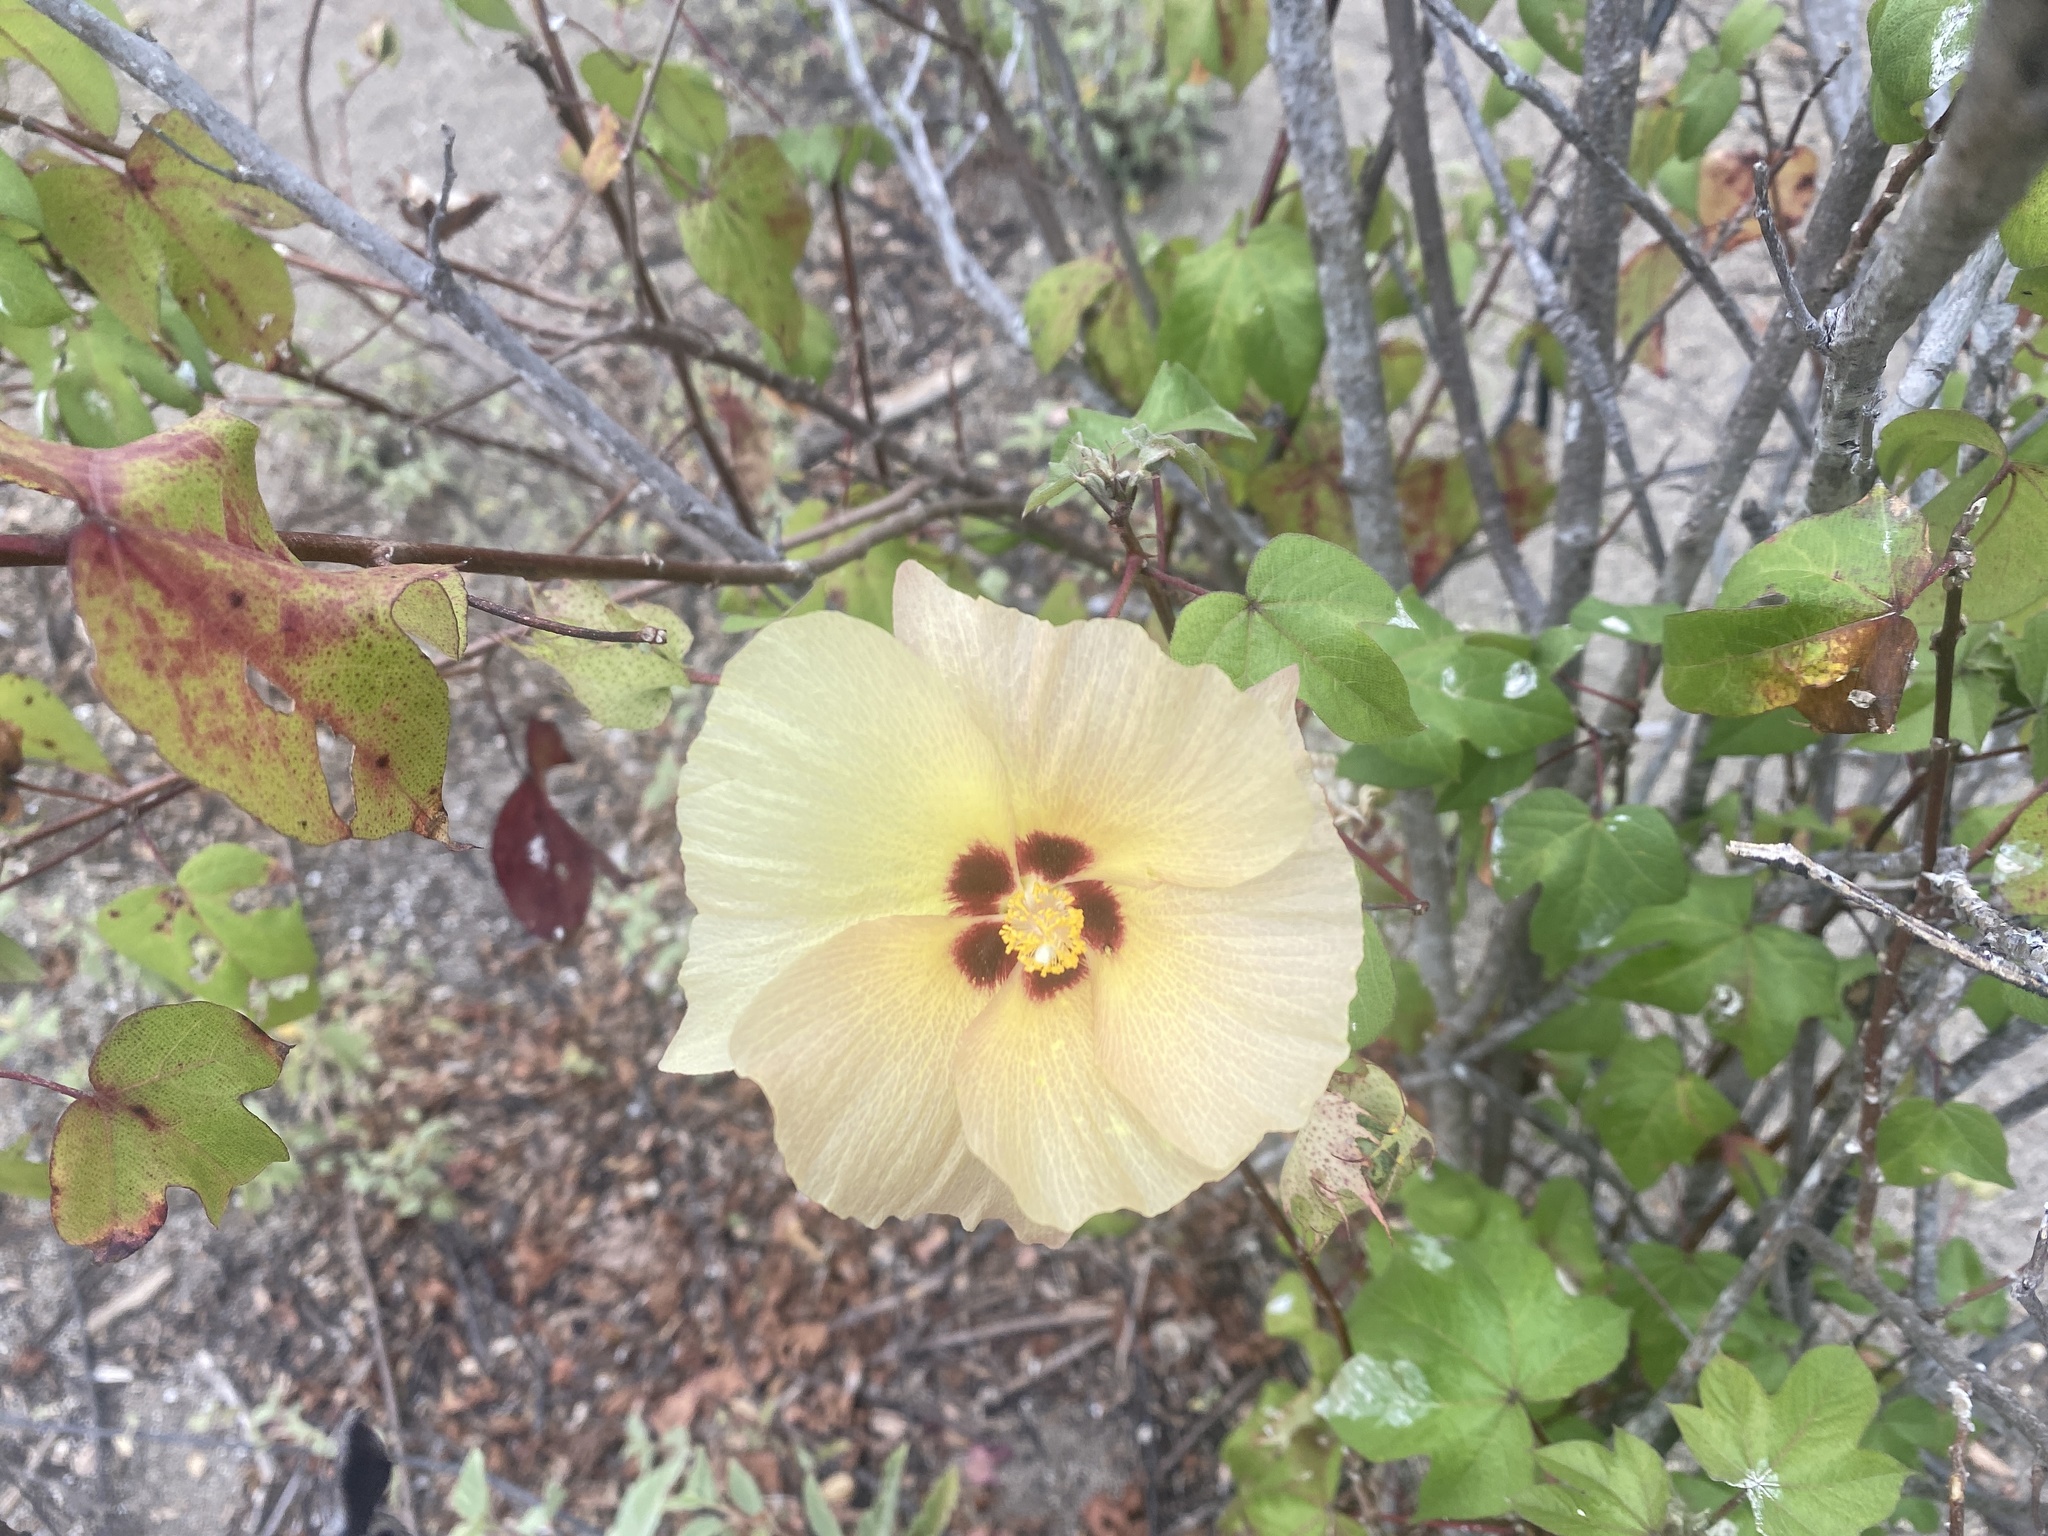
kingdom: Plantae
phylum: Tracheophyta
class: Magnoliopsida
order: Malvales
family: Malvaceae
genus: Gossypium
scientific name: Gossypium darwinii
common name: Darwin's cotton
